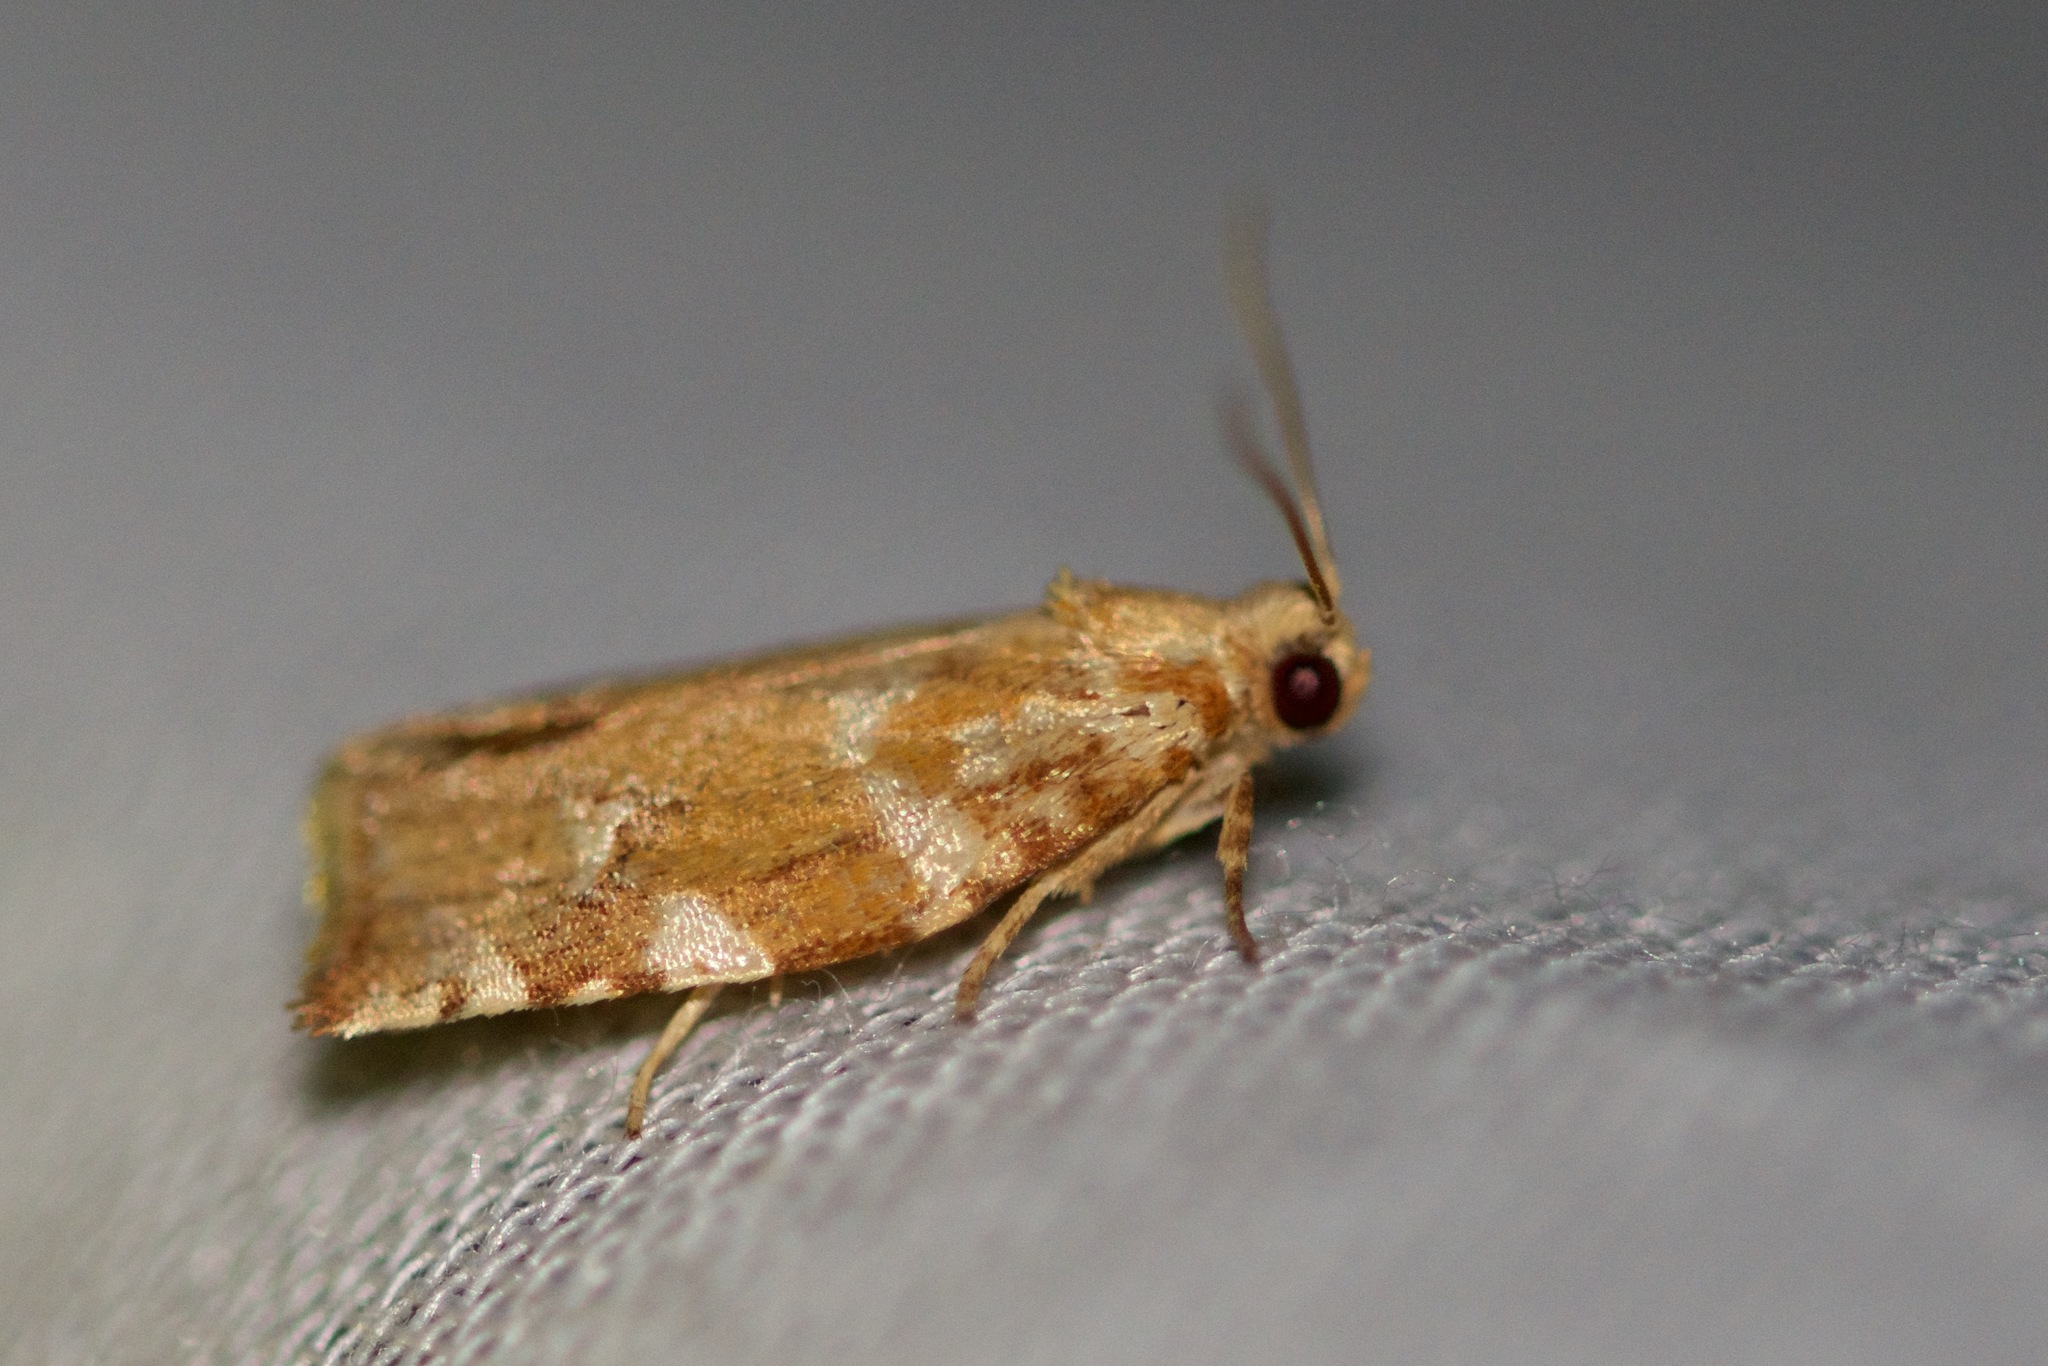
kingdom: Animalia
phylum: Arthropoda
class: Insecta
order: Lepidoptera
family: Tortricidae
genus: Archips
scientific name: Archips semiferanus
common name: Oak leafroller
